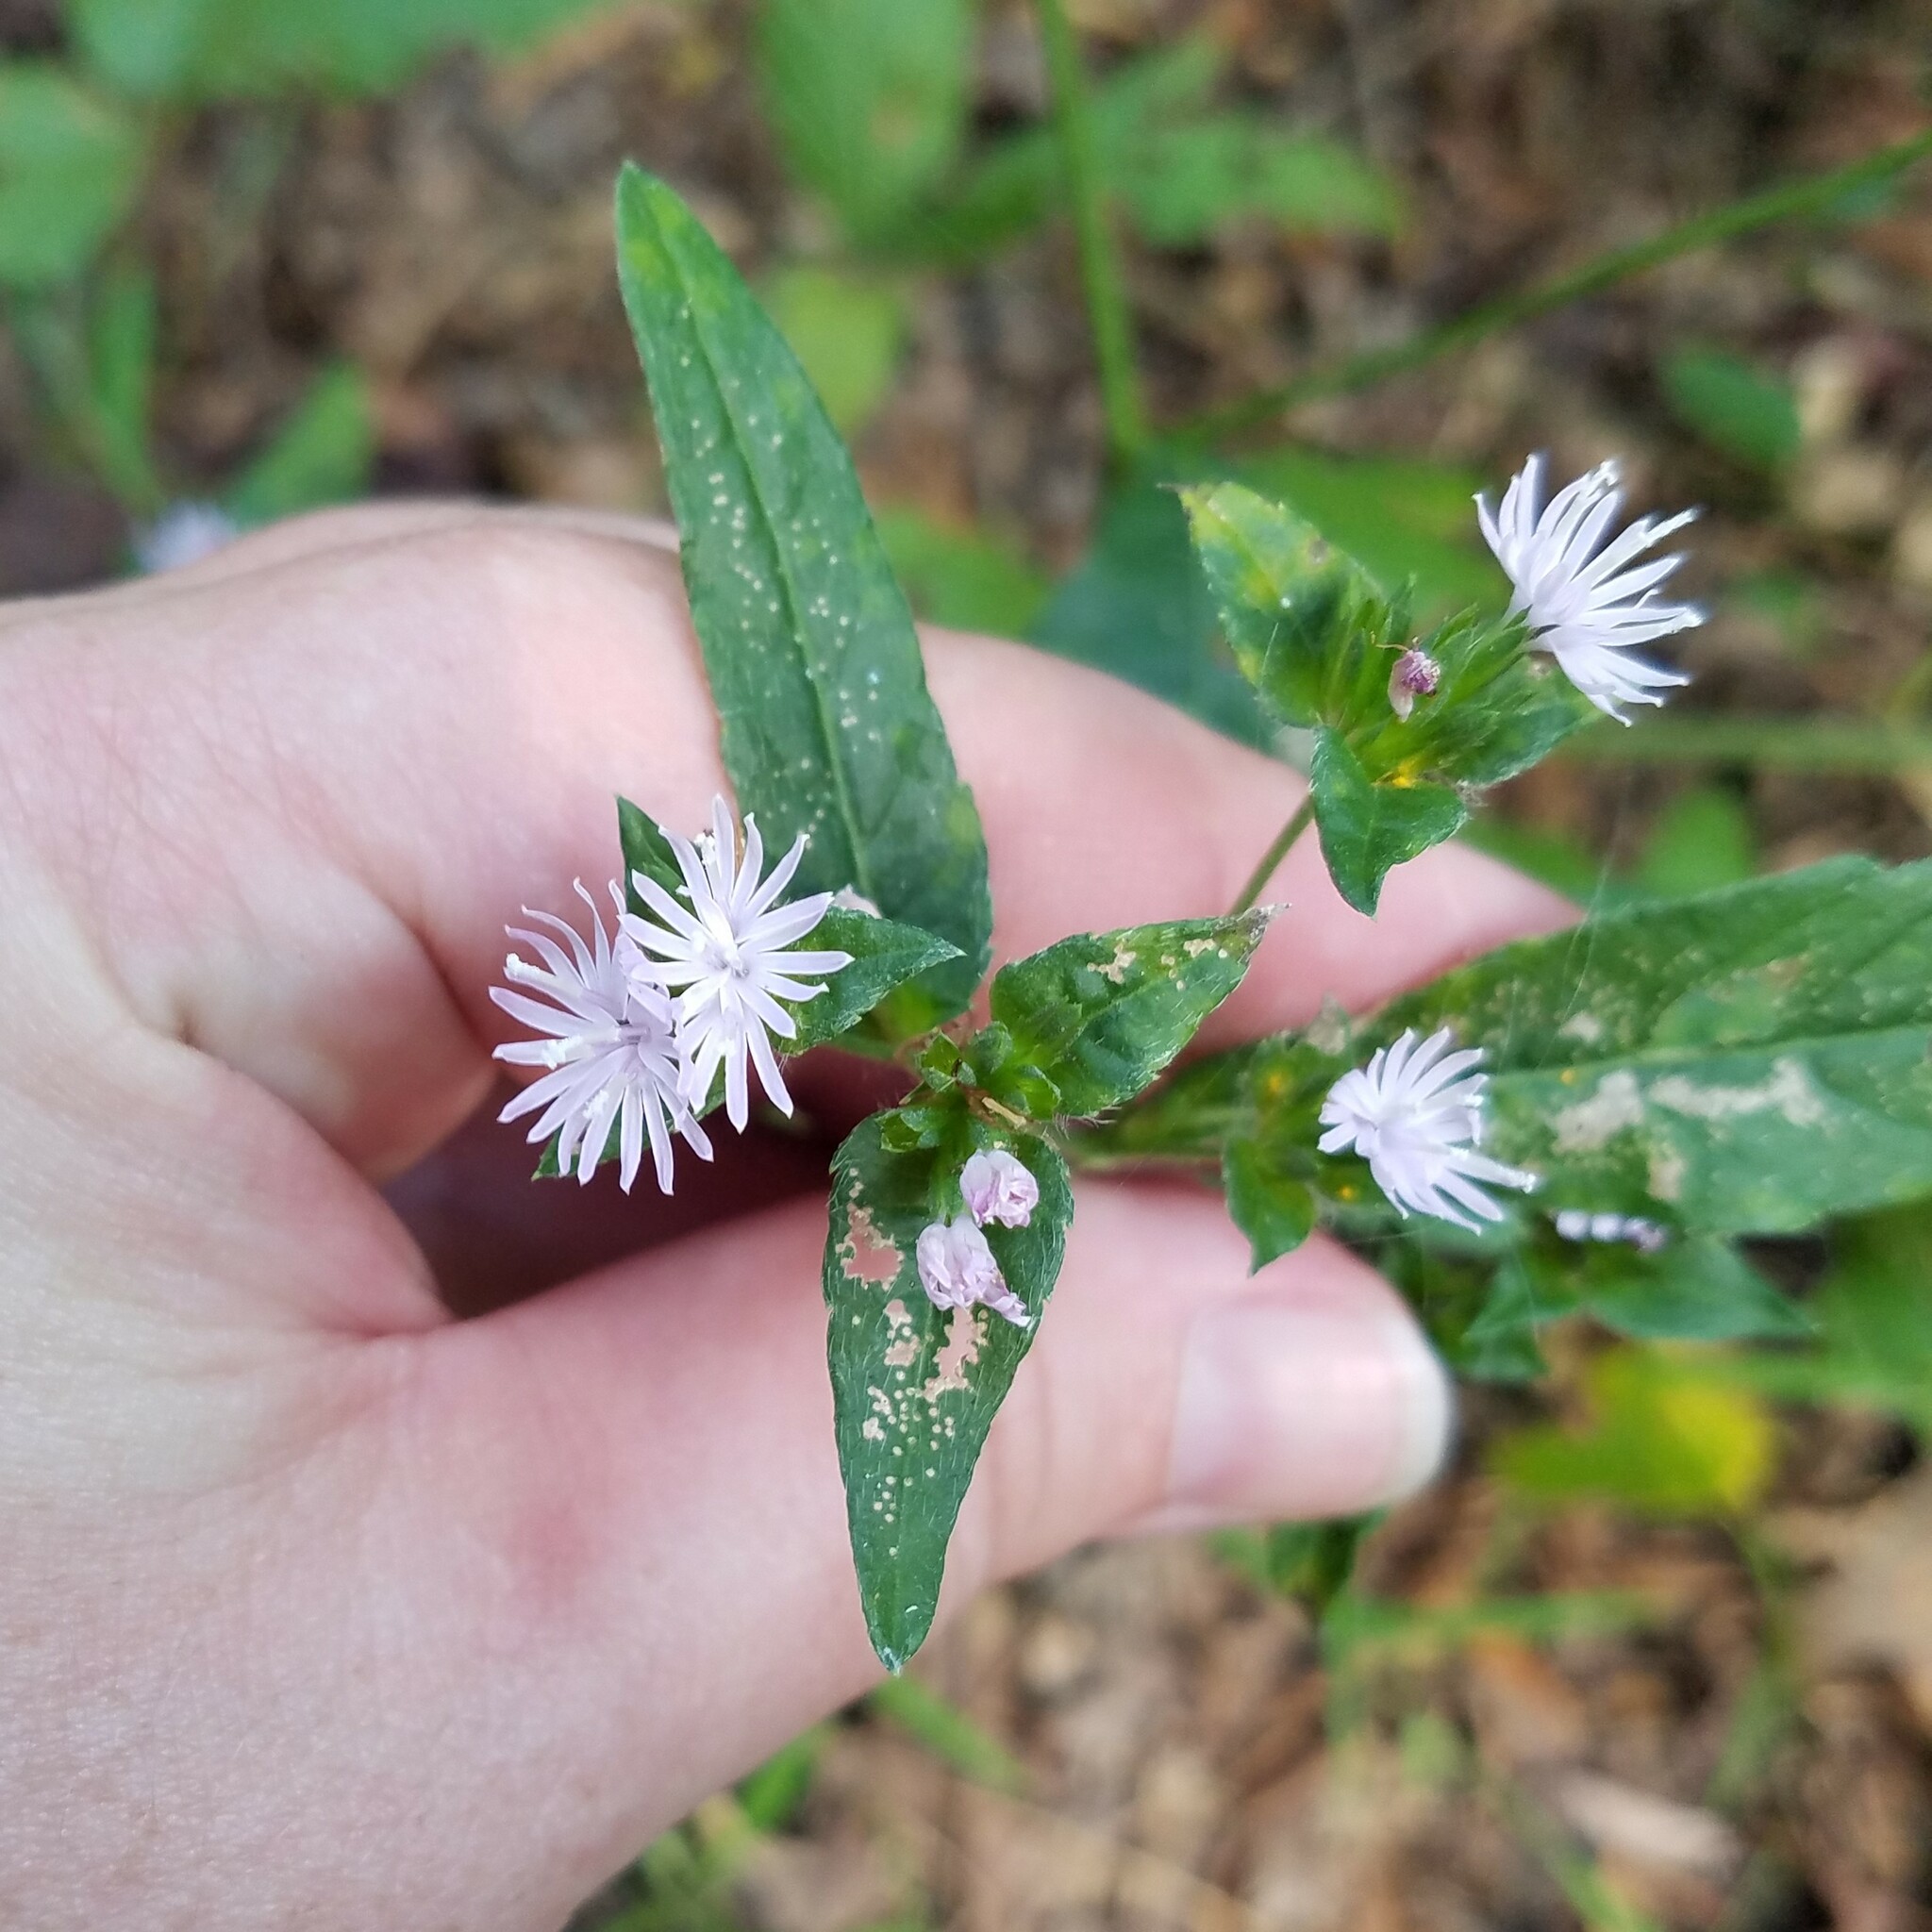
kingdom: Plantae
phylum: Tracheophyta
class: Magnoliopsida
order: Asterales
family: Asteraceae
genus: Elephantopus
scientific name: Elephantopus carolinianus
